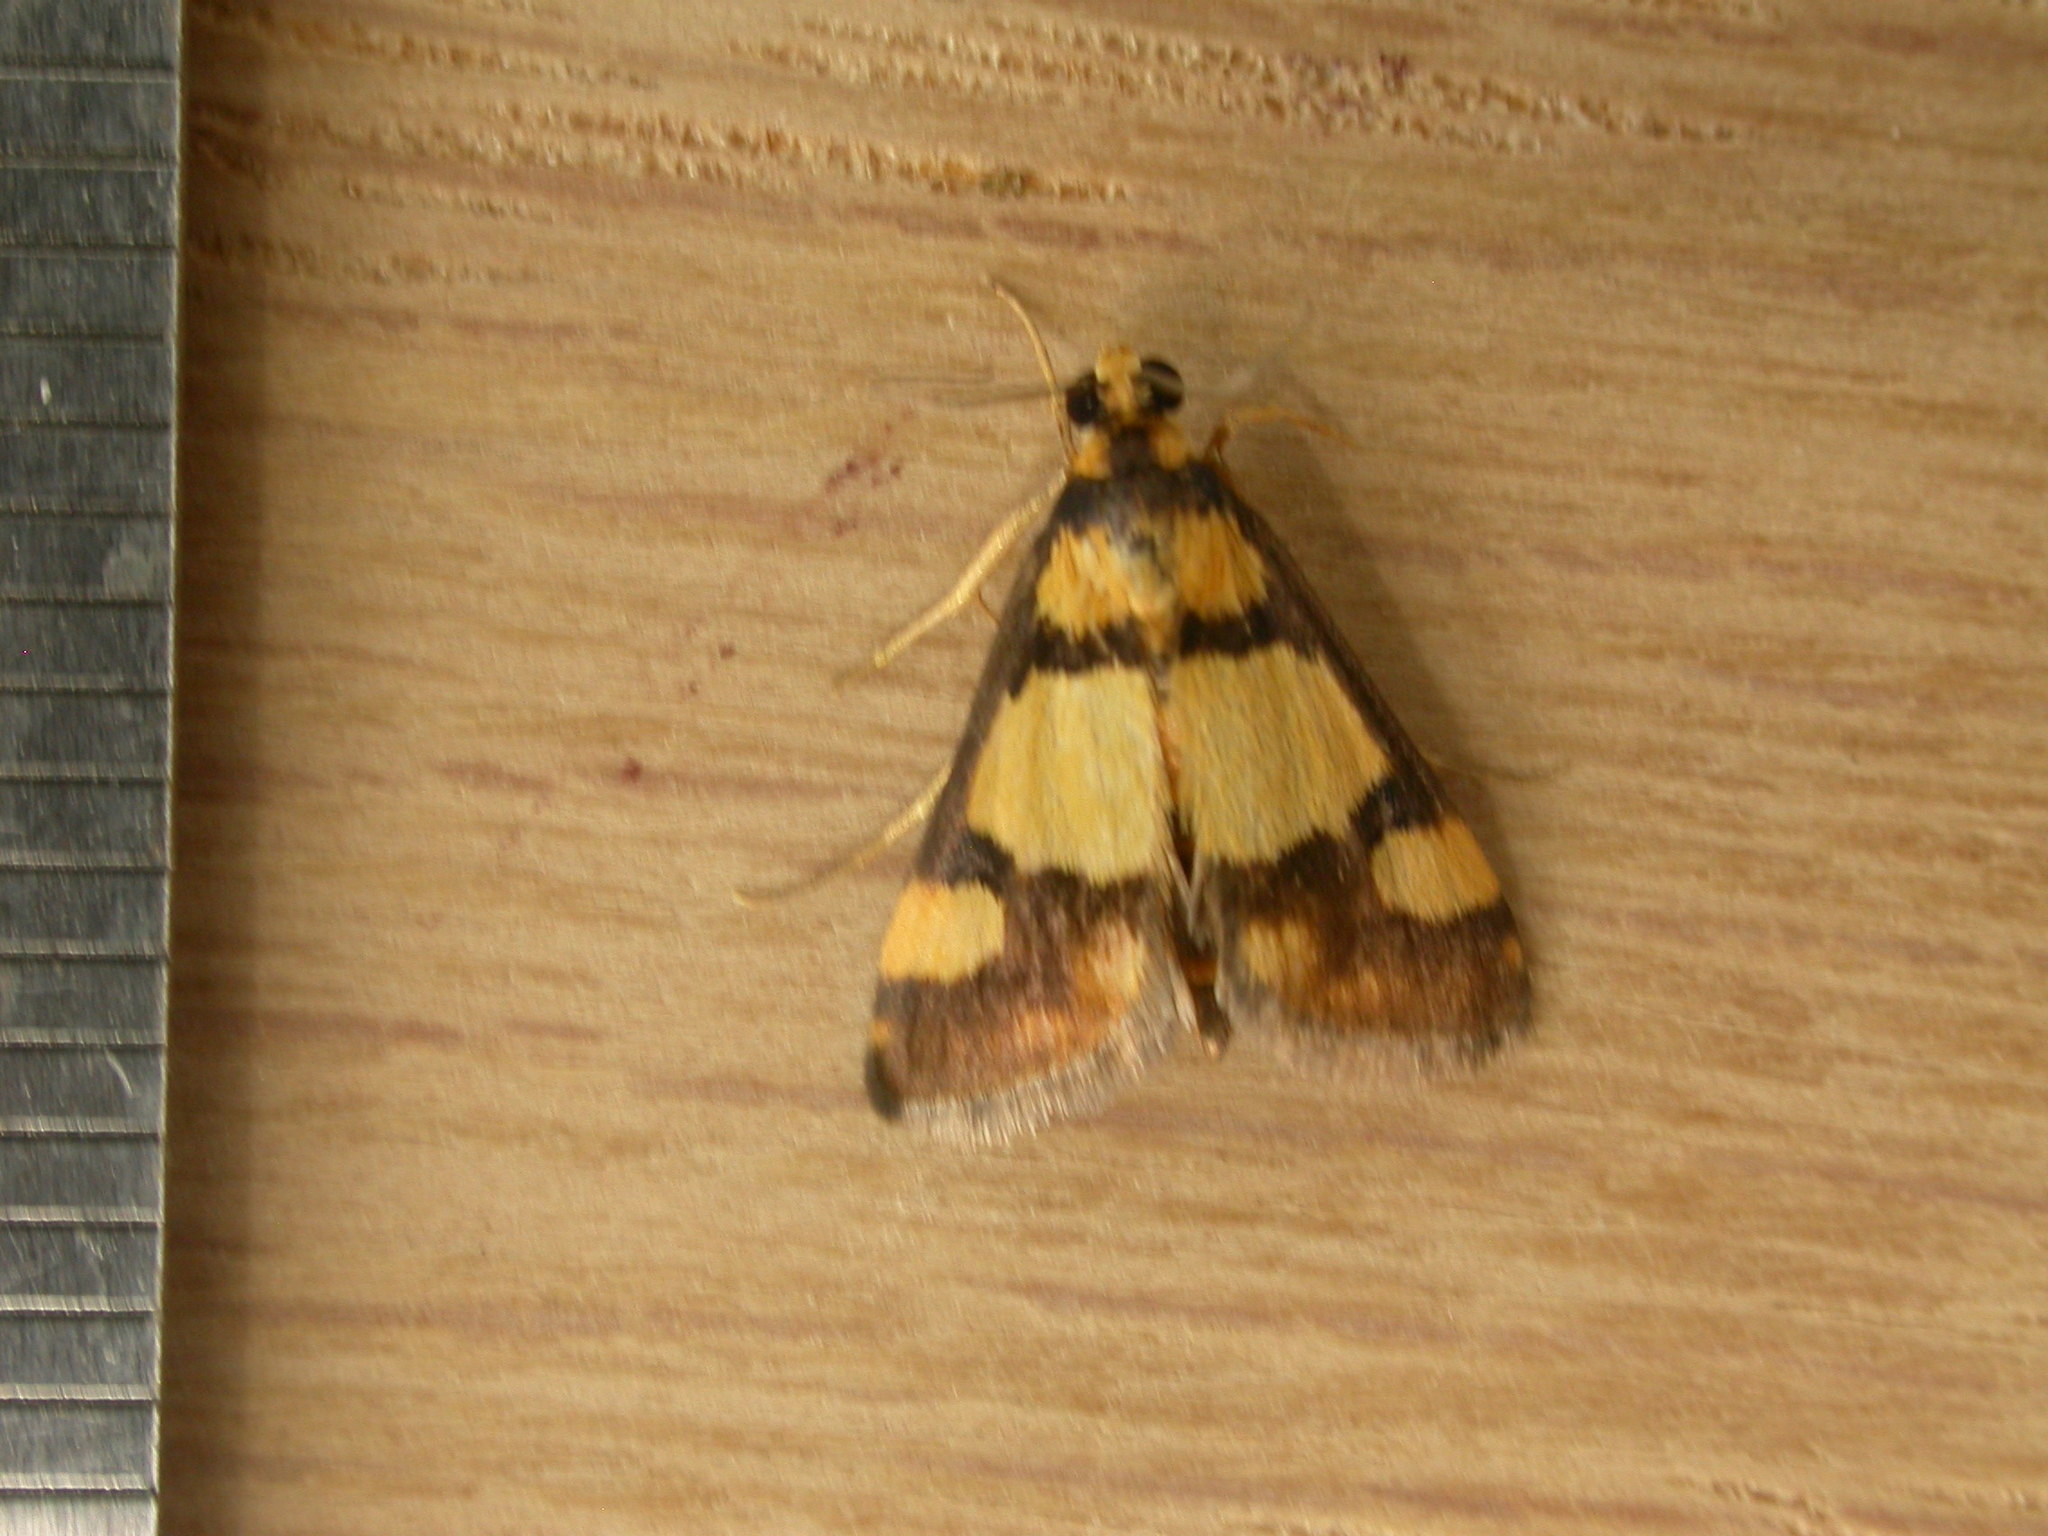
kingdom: Animalia
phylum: Arthropoda
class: Insecta
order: Lepidoptera
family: Crambidae
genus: Deuterarcha
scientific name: Deuterarcha xanthomela
